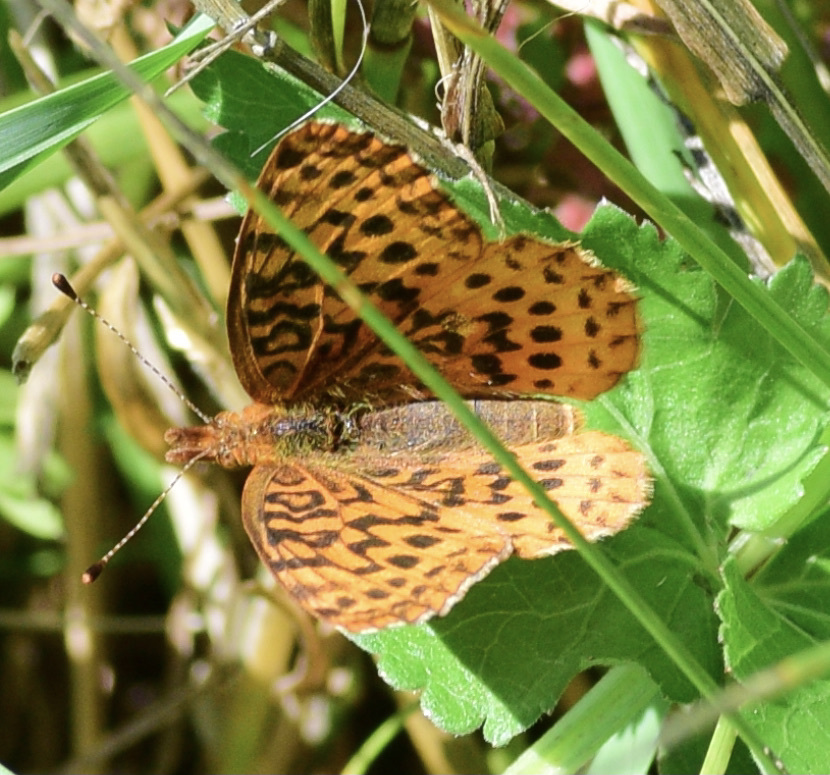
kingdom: Animalia
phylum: Arthropoda
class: Insecta
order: Lepidoptera
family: Nymphalidae
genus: Clossiana
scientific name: Clossiana toddi
